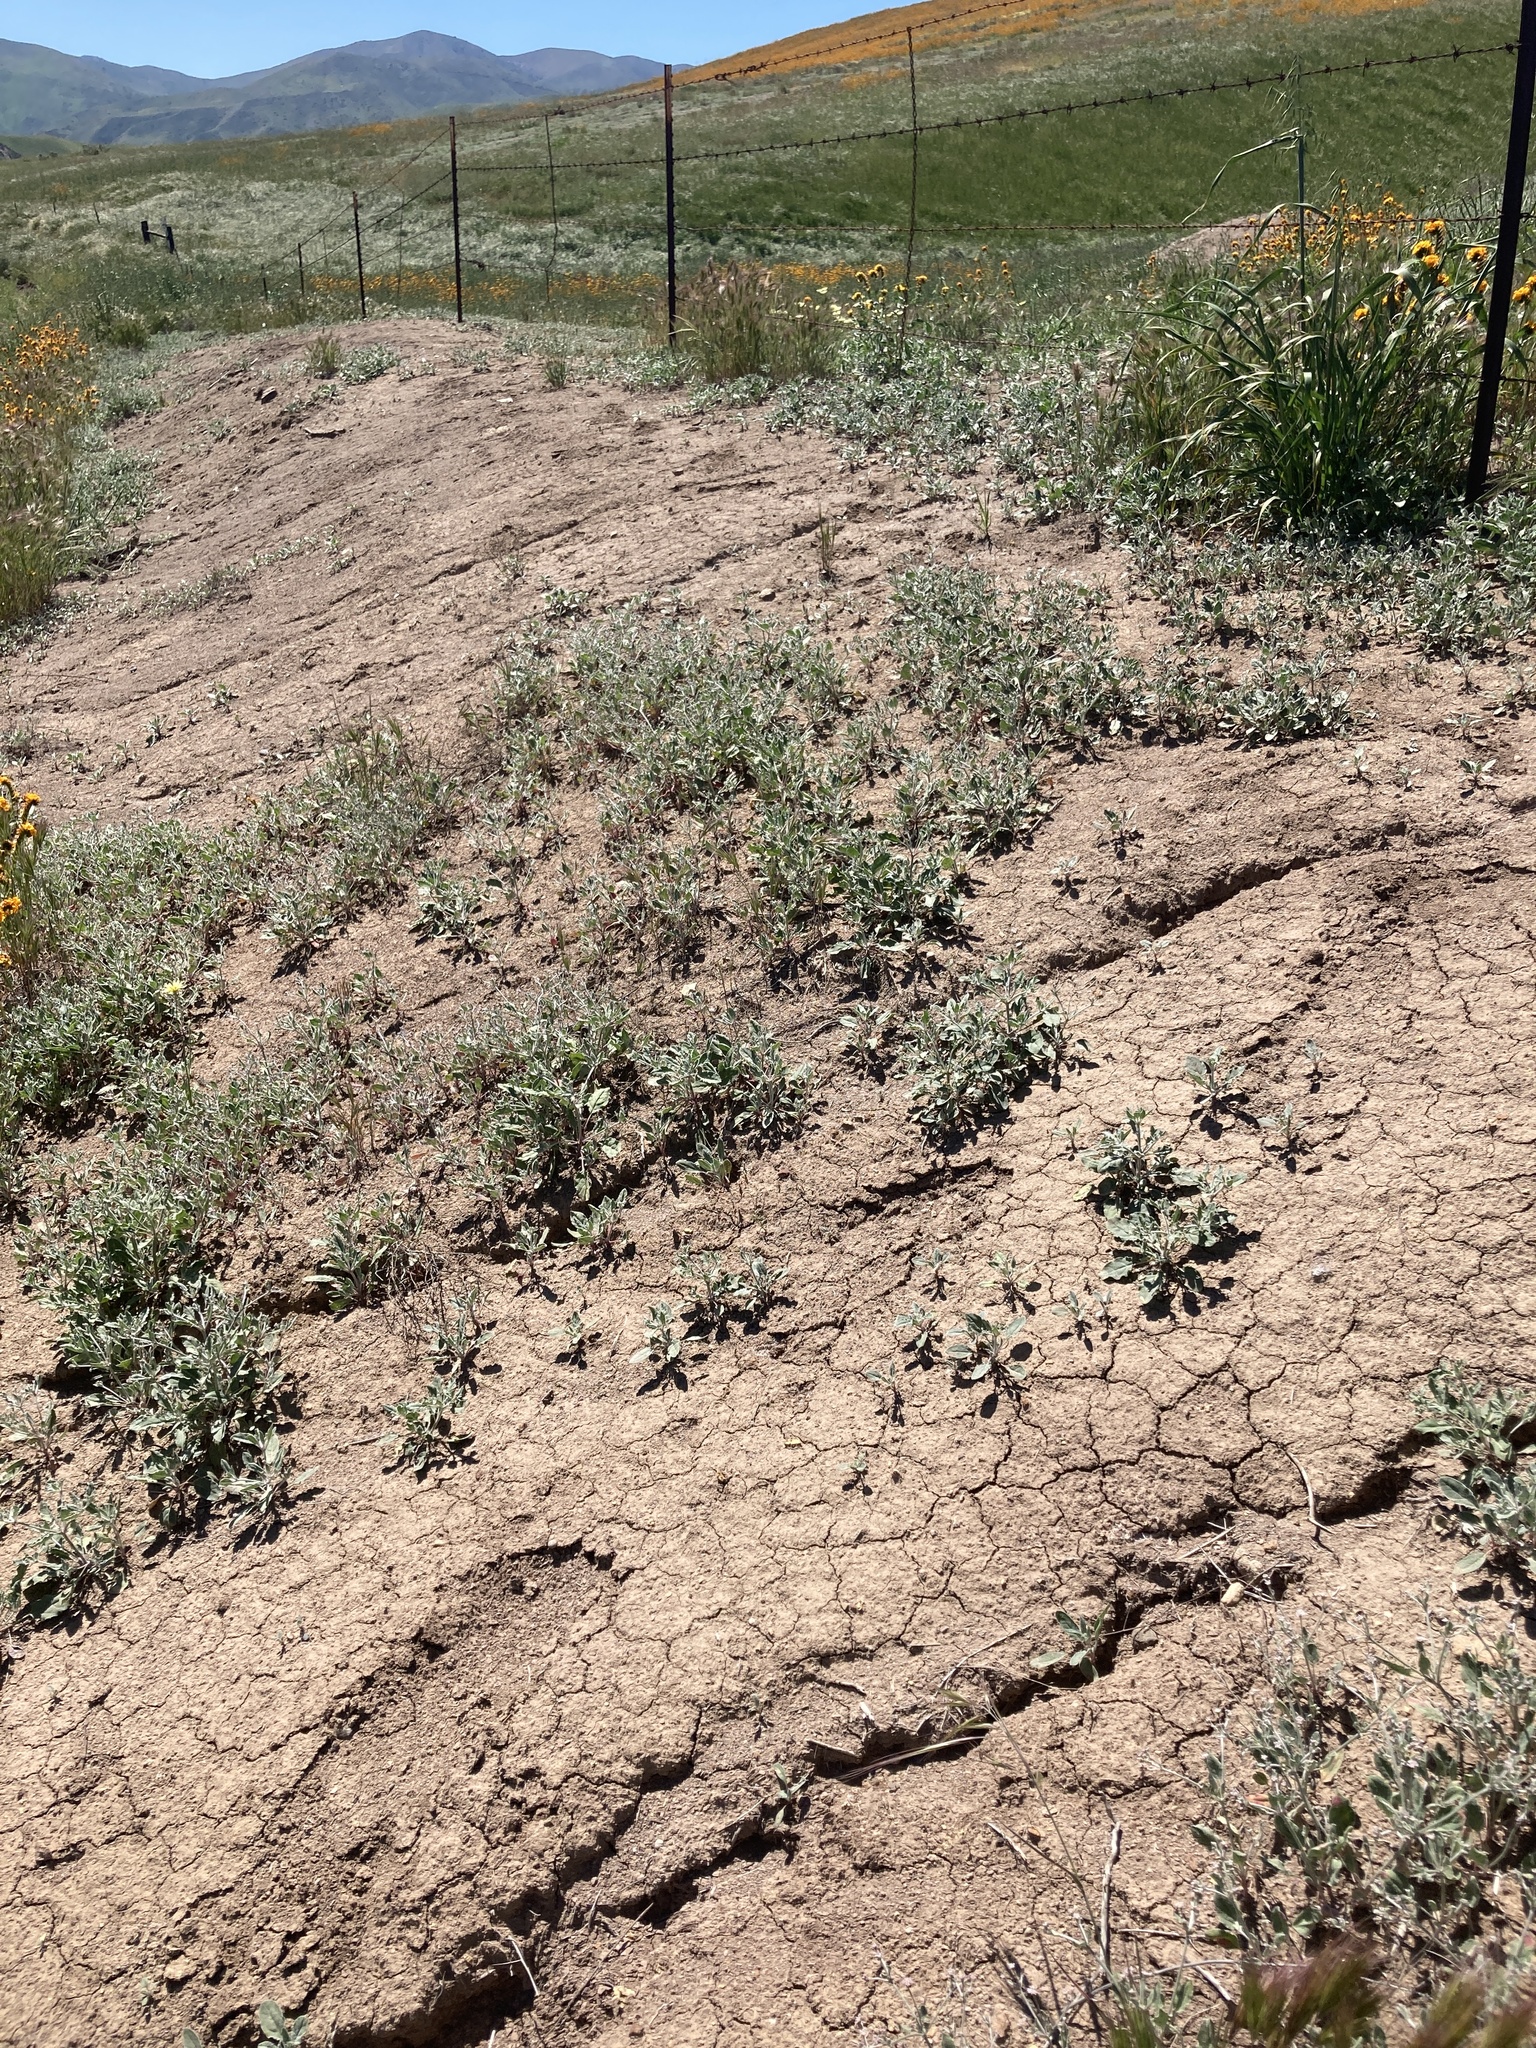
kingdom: Plantae
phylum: Tracheophyta
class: Magnoliopsida
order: Caryophyllales
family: Polygonaceae
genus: Eriogonum
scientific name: Eriogonum vestitum
